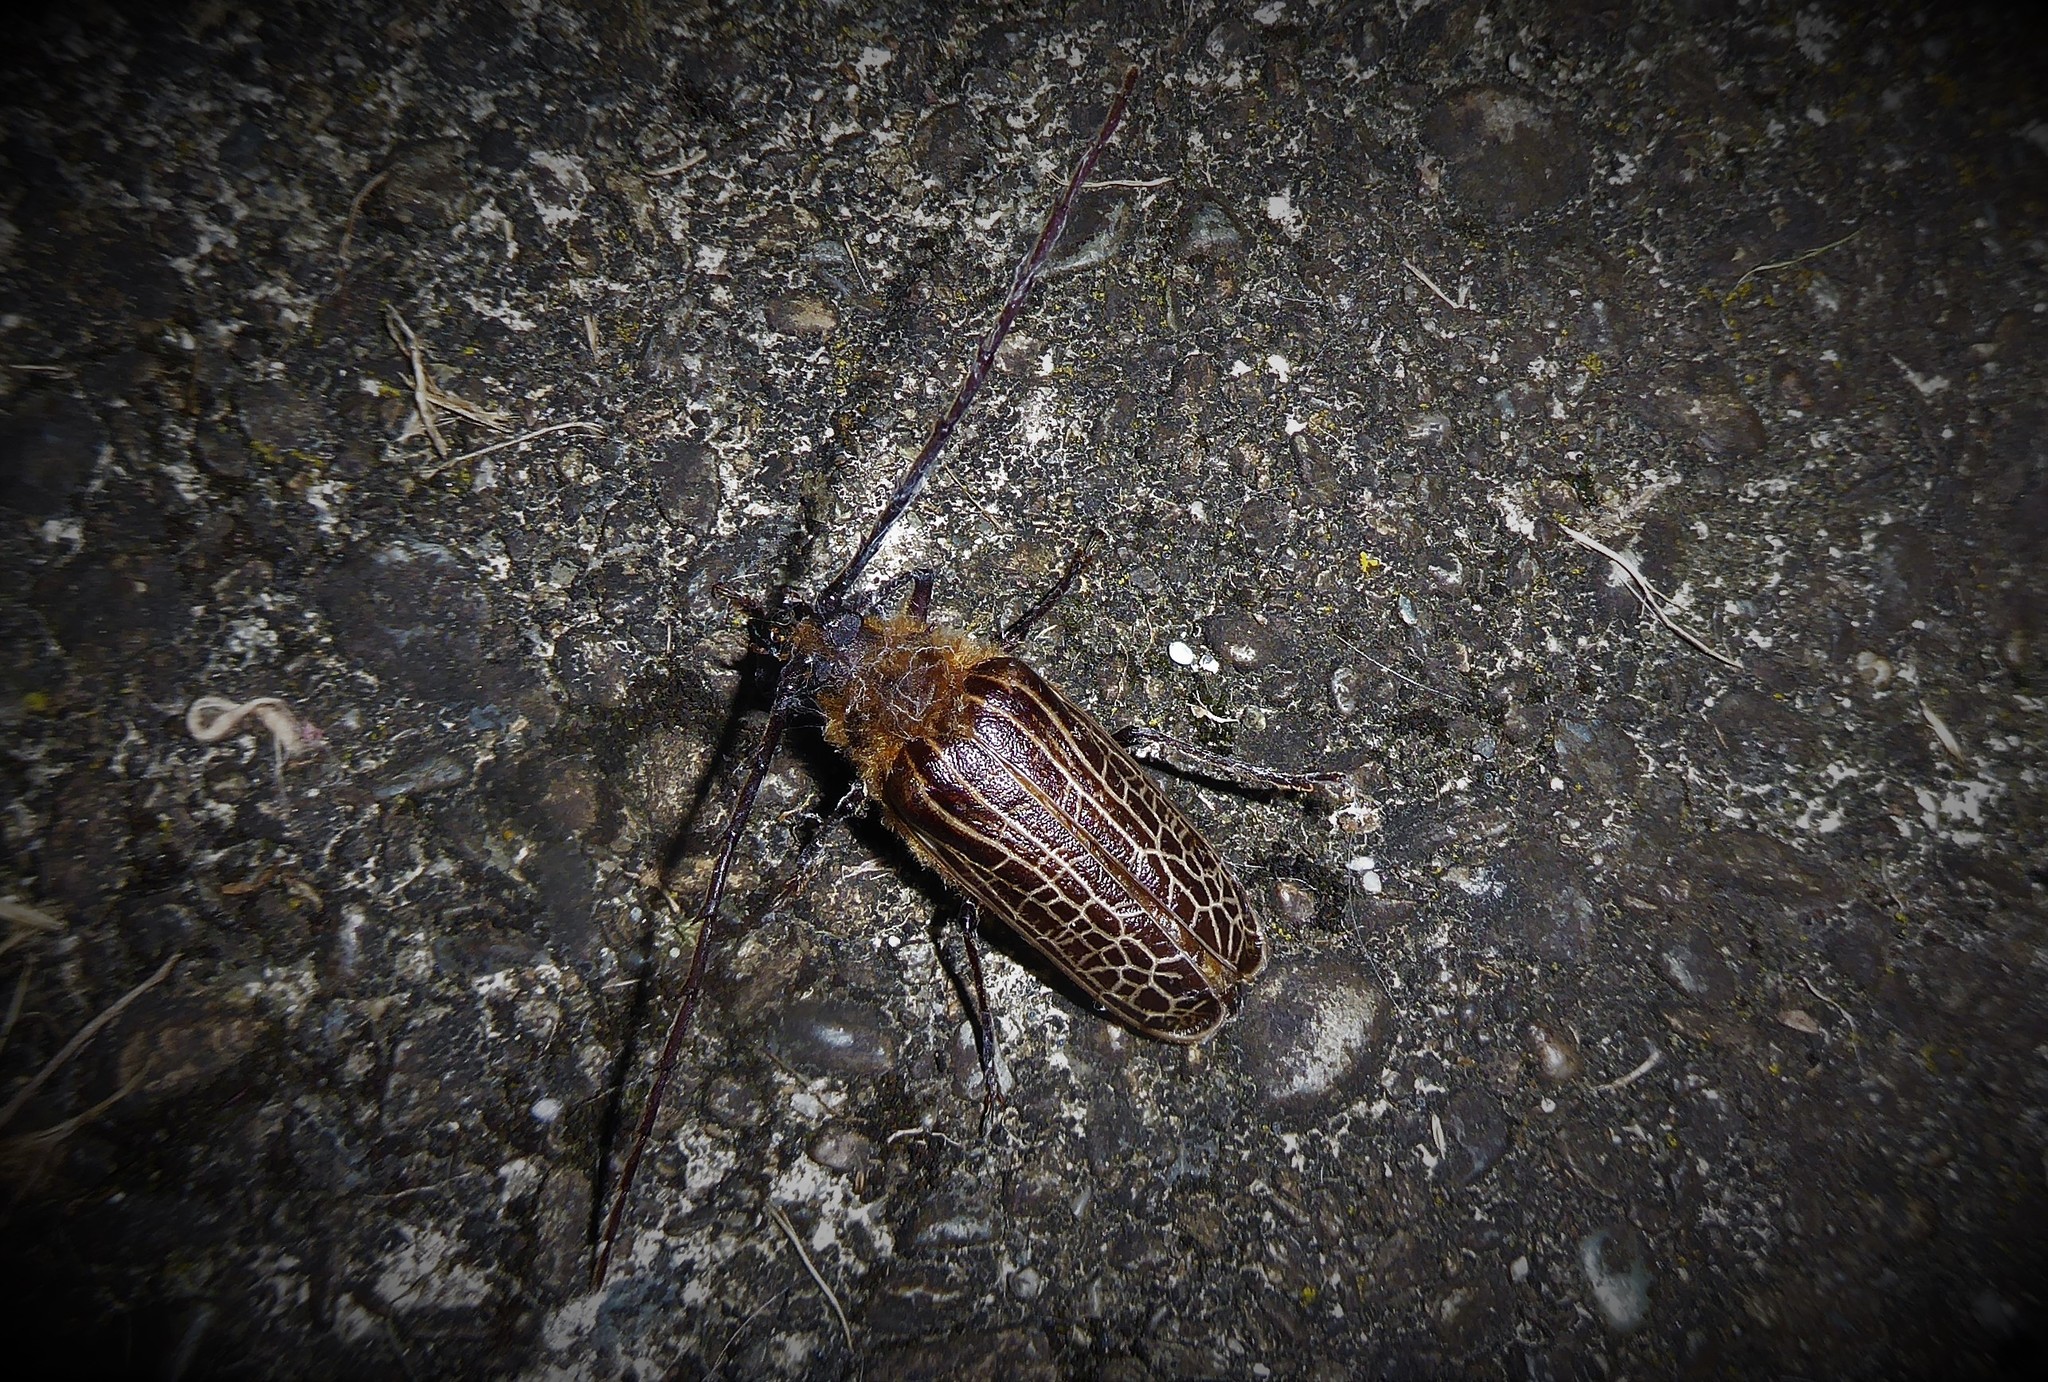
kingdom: Animalia
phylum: Arthropoda
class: Insecta
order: Coleoptera
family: Cerambycidae
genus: Prionoplus
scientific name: Prionoplus reticularis
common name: Huhu beetle
